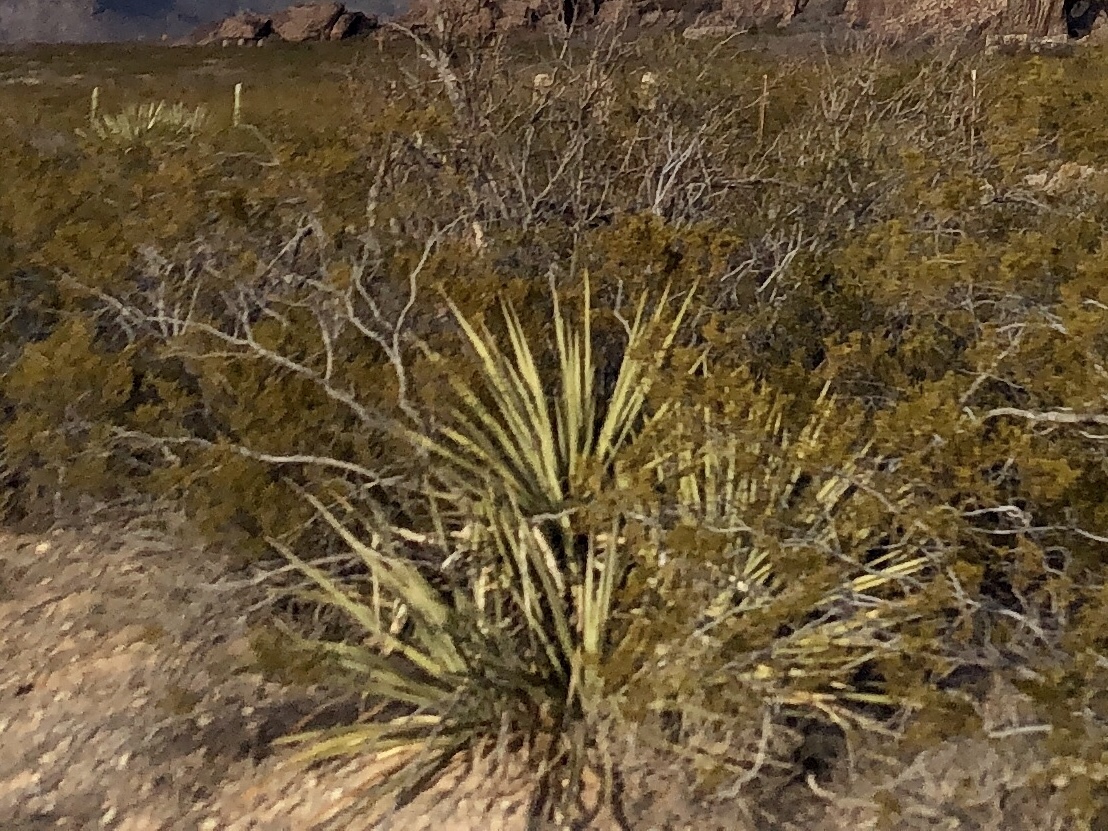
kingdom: Plantae
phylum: Tracheophyta
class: Liliopsida
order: Asparagales
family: Asparagaceae
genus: Yucca
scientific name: Yucca baccata
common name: Banana yucca
